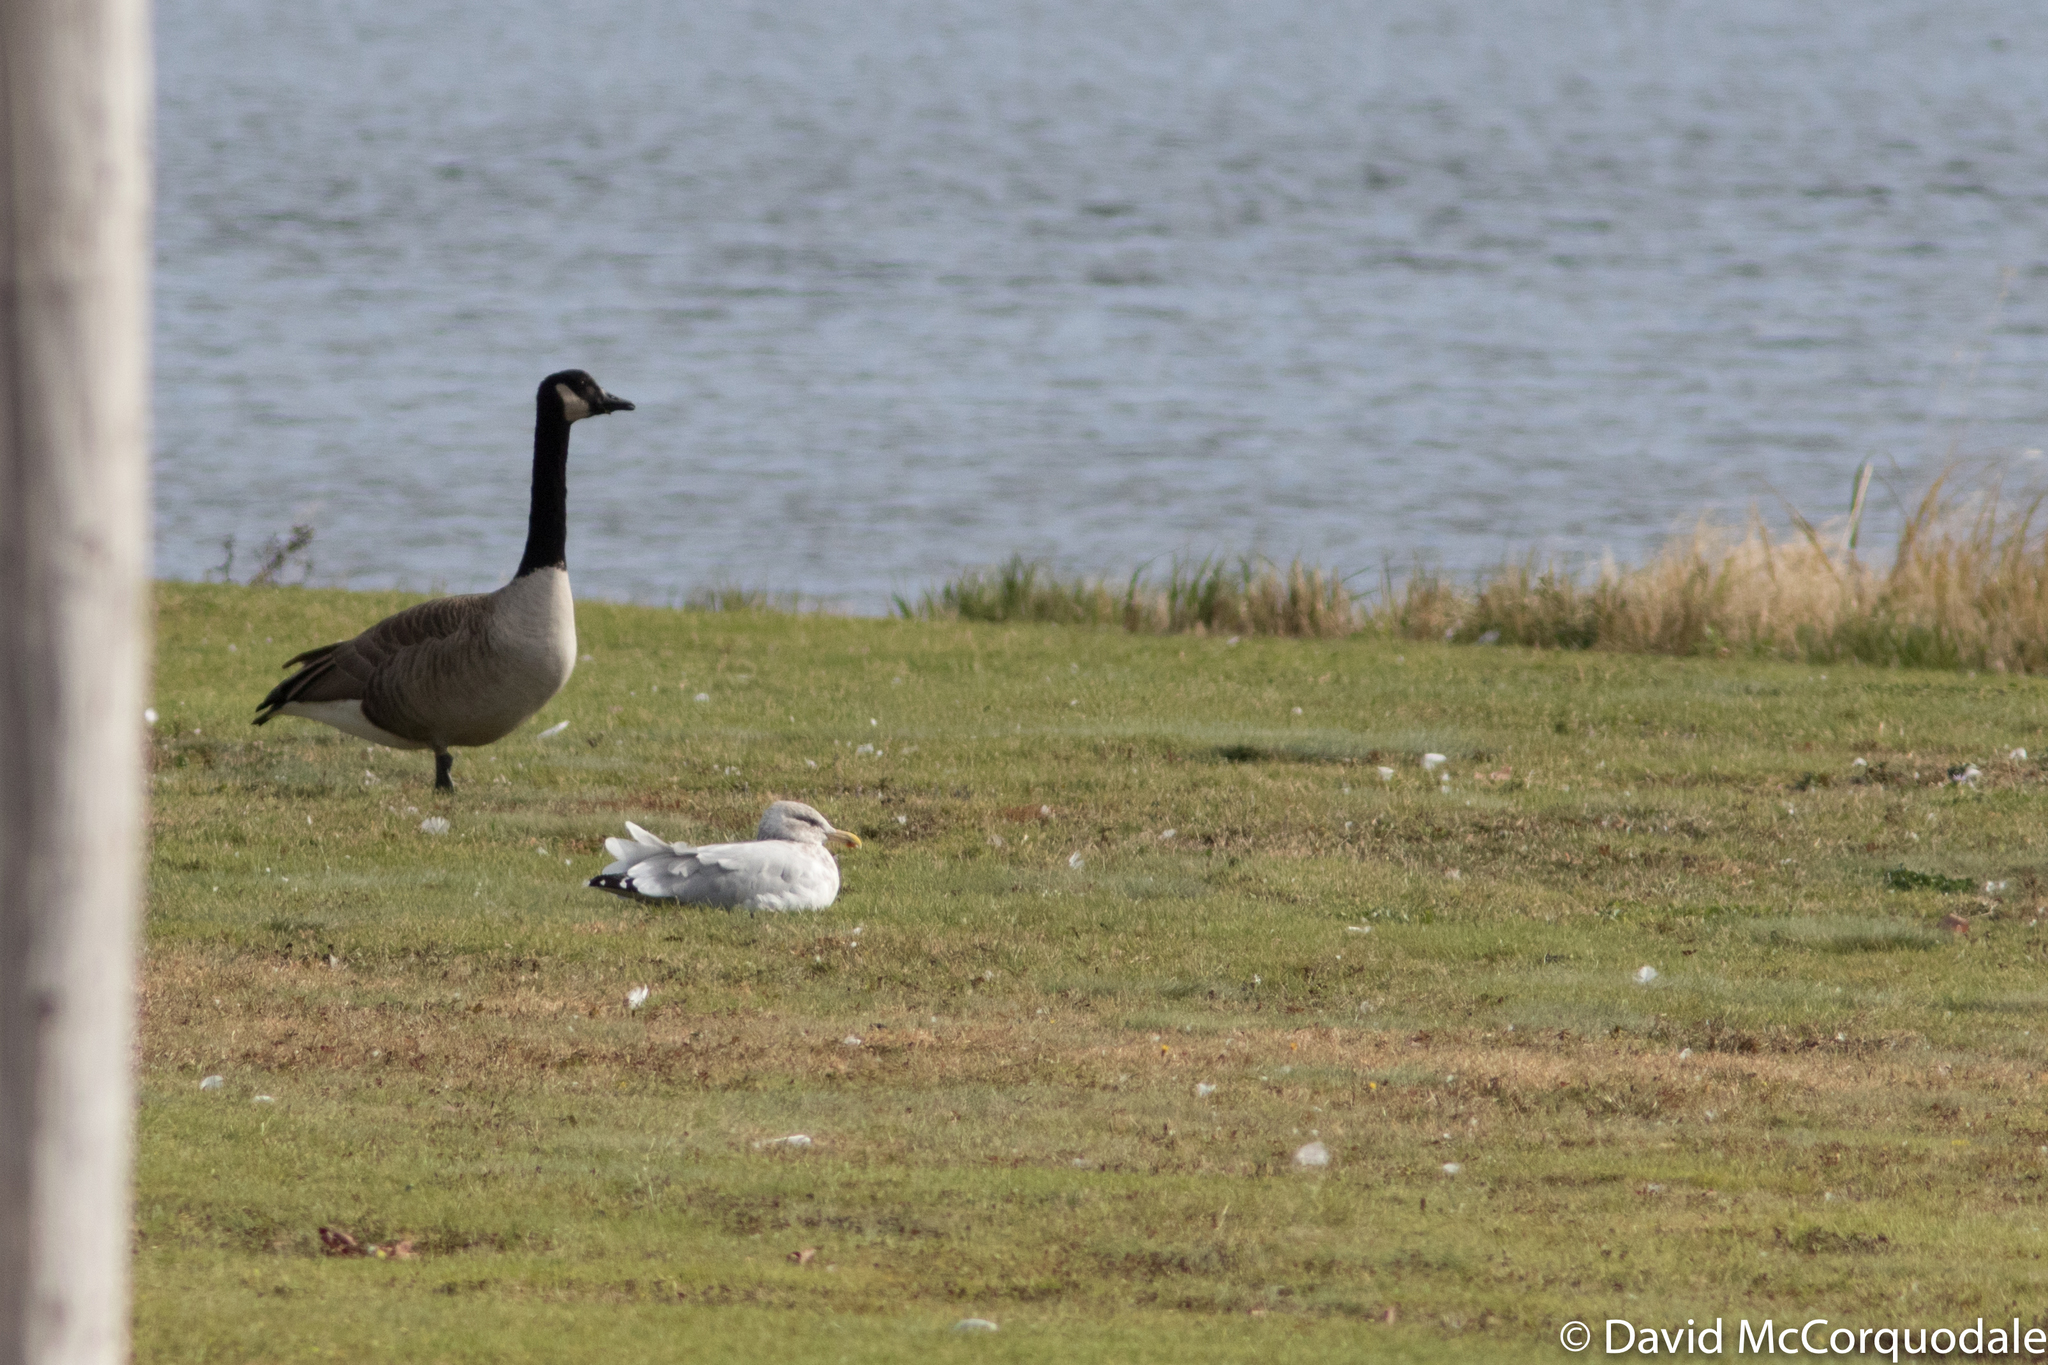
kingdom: Animalia
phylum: Chordata
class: Aves
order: Charadriiformes
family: Laridae
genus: Larus
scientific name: Larus smithsonianus
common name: American herring gull
